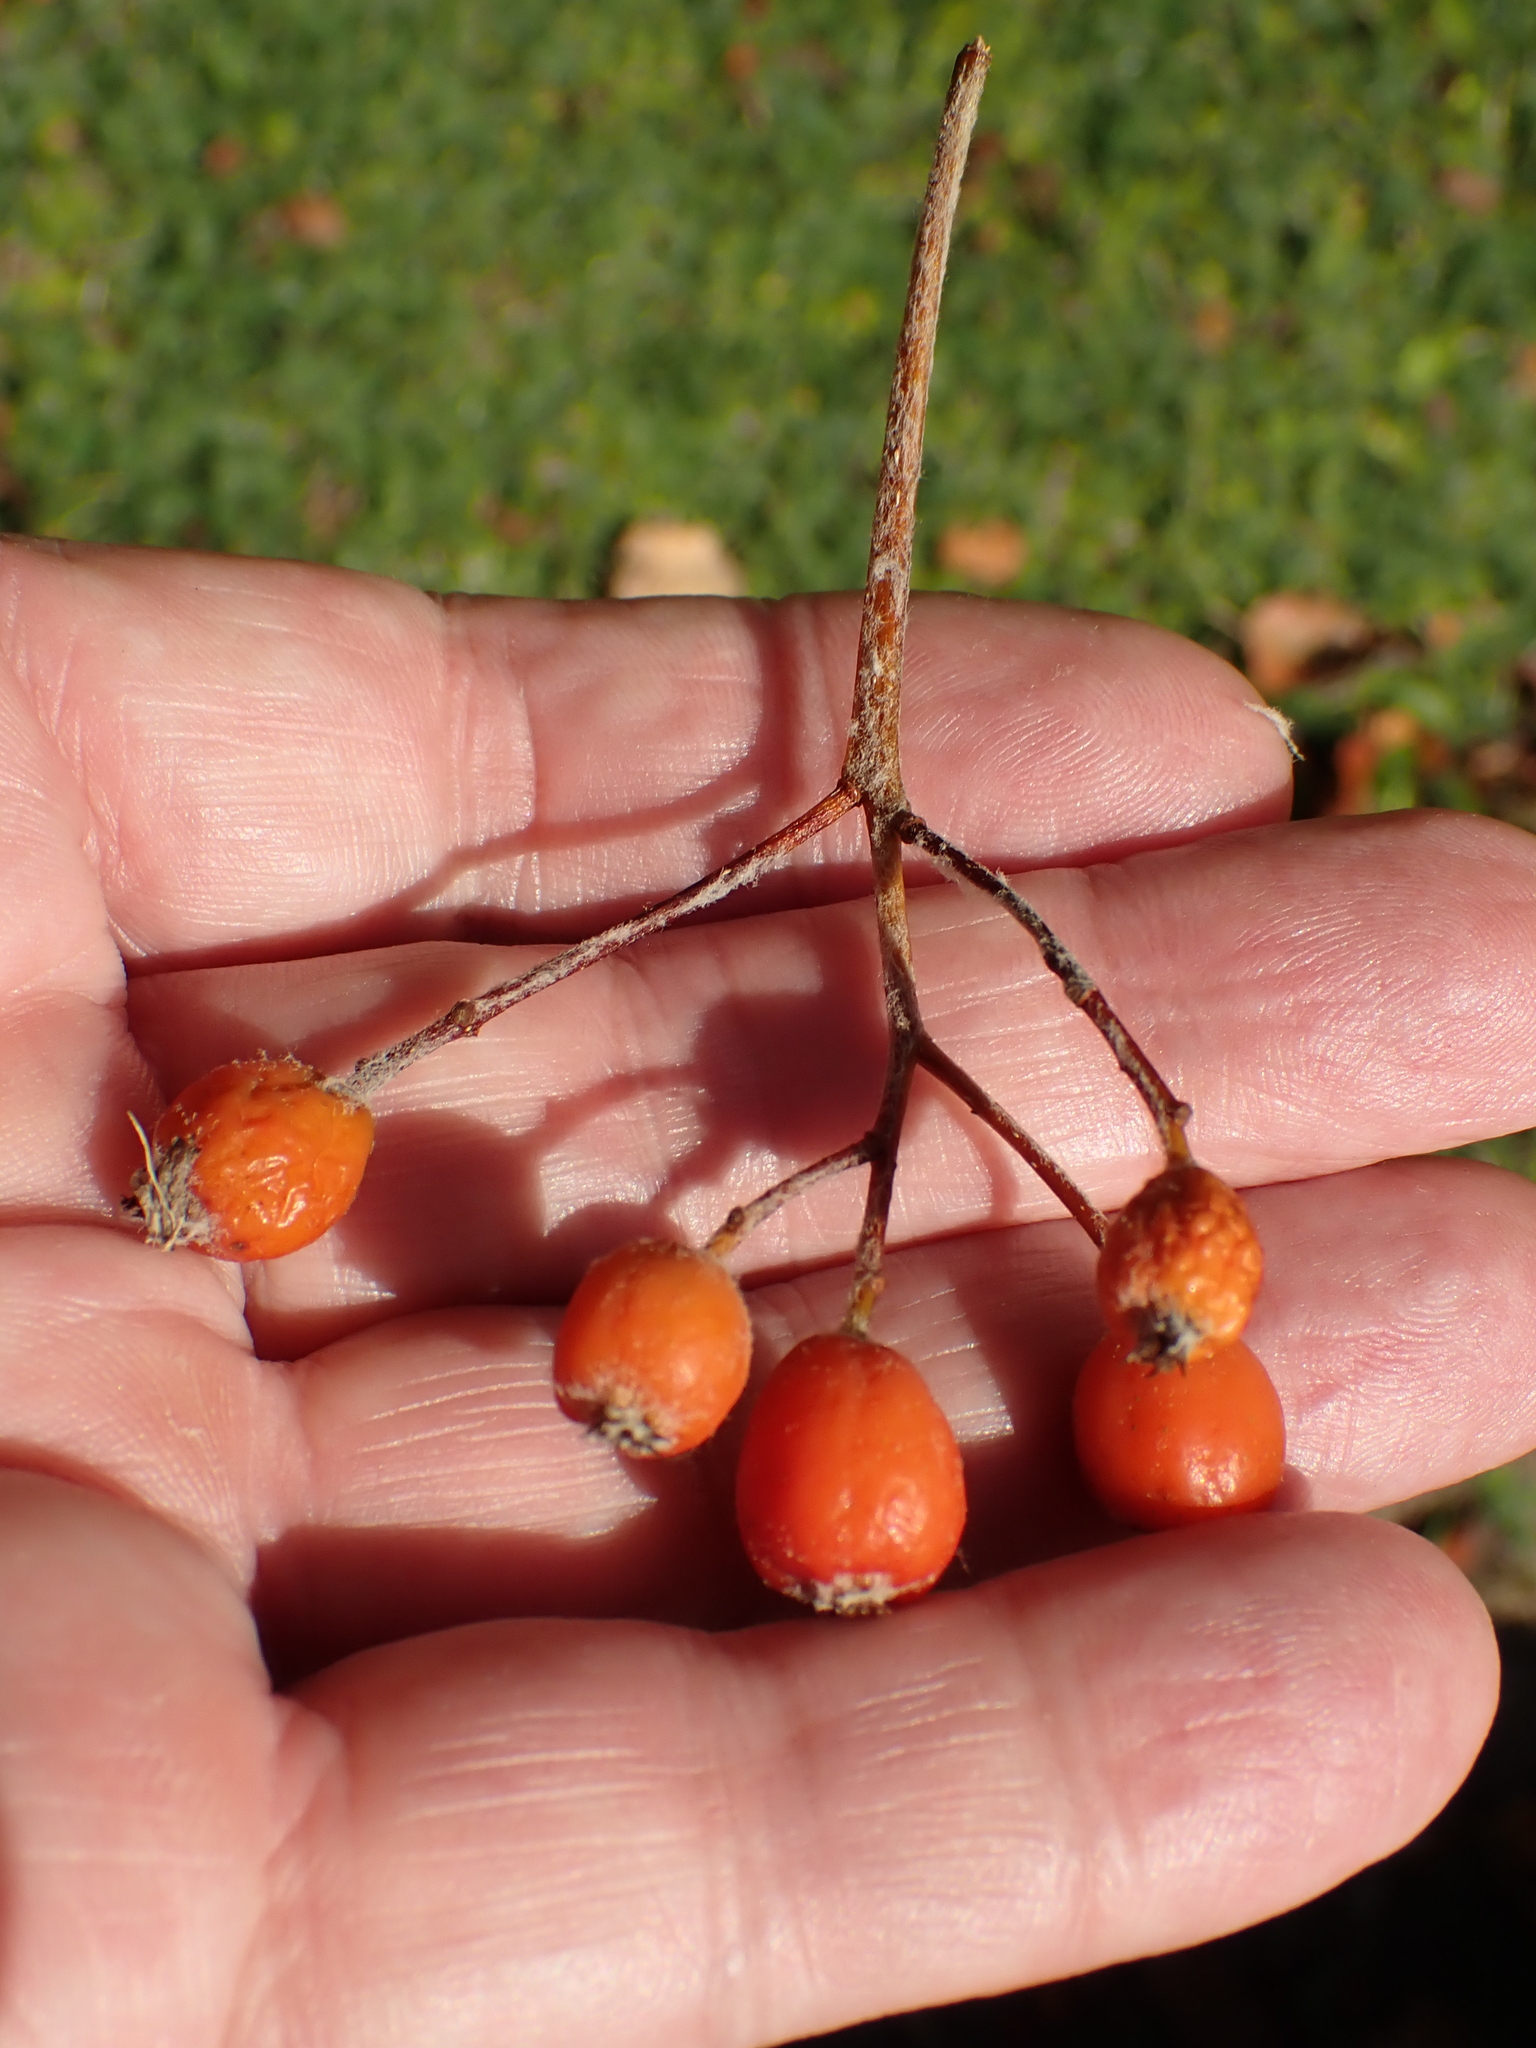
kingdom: Plantae
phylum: Tracheophyta
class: Magnoliopsida
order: Rosales
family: Rosaceae
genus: Scandosorbus
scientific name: Scandosorbus intermedia
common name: Swedish whitebeam
